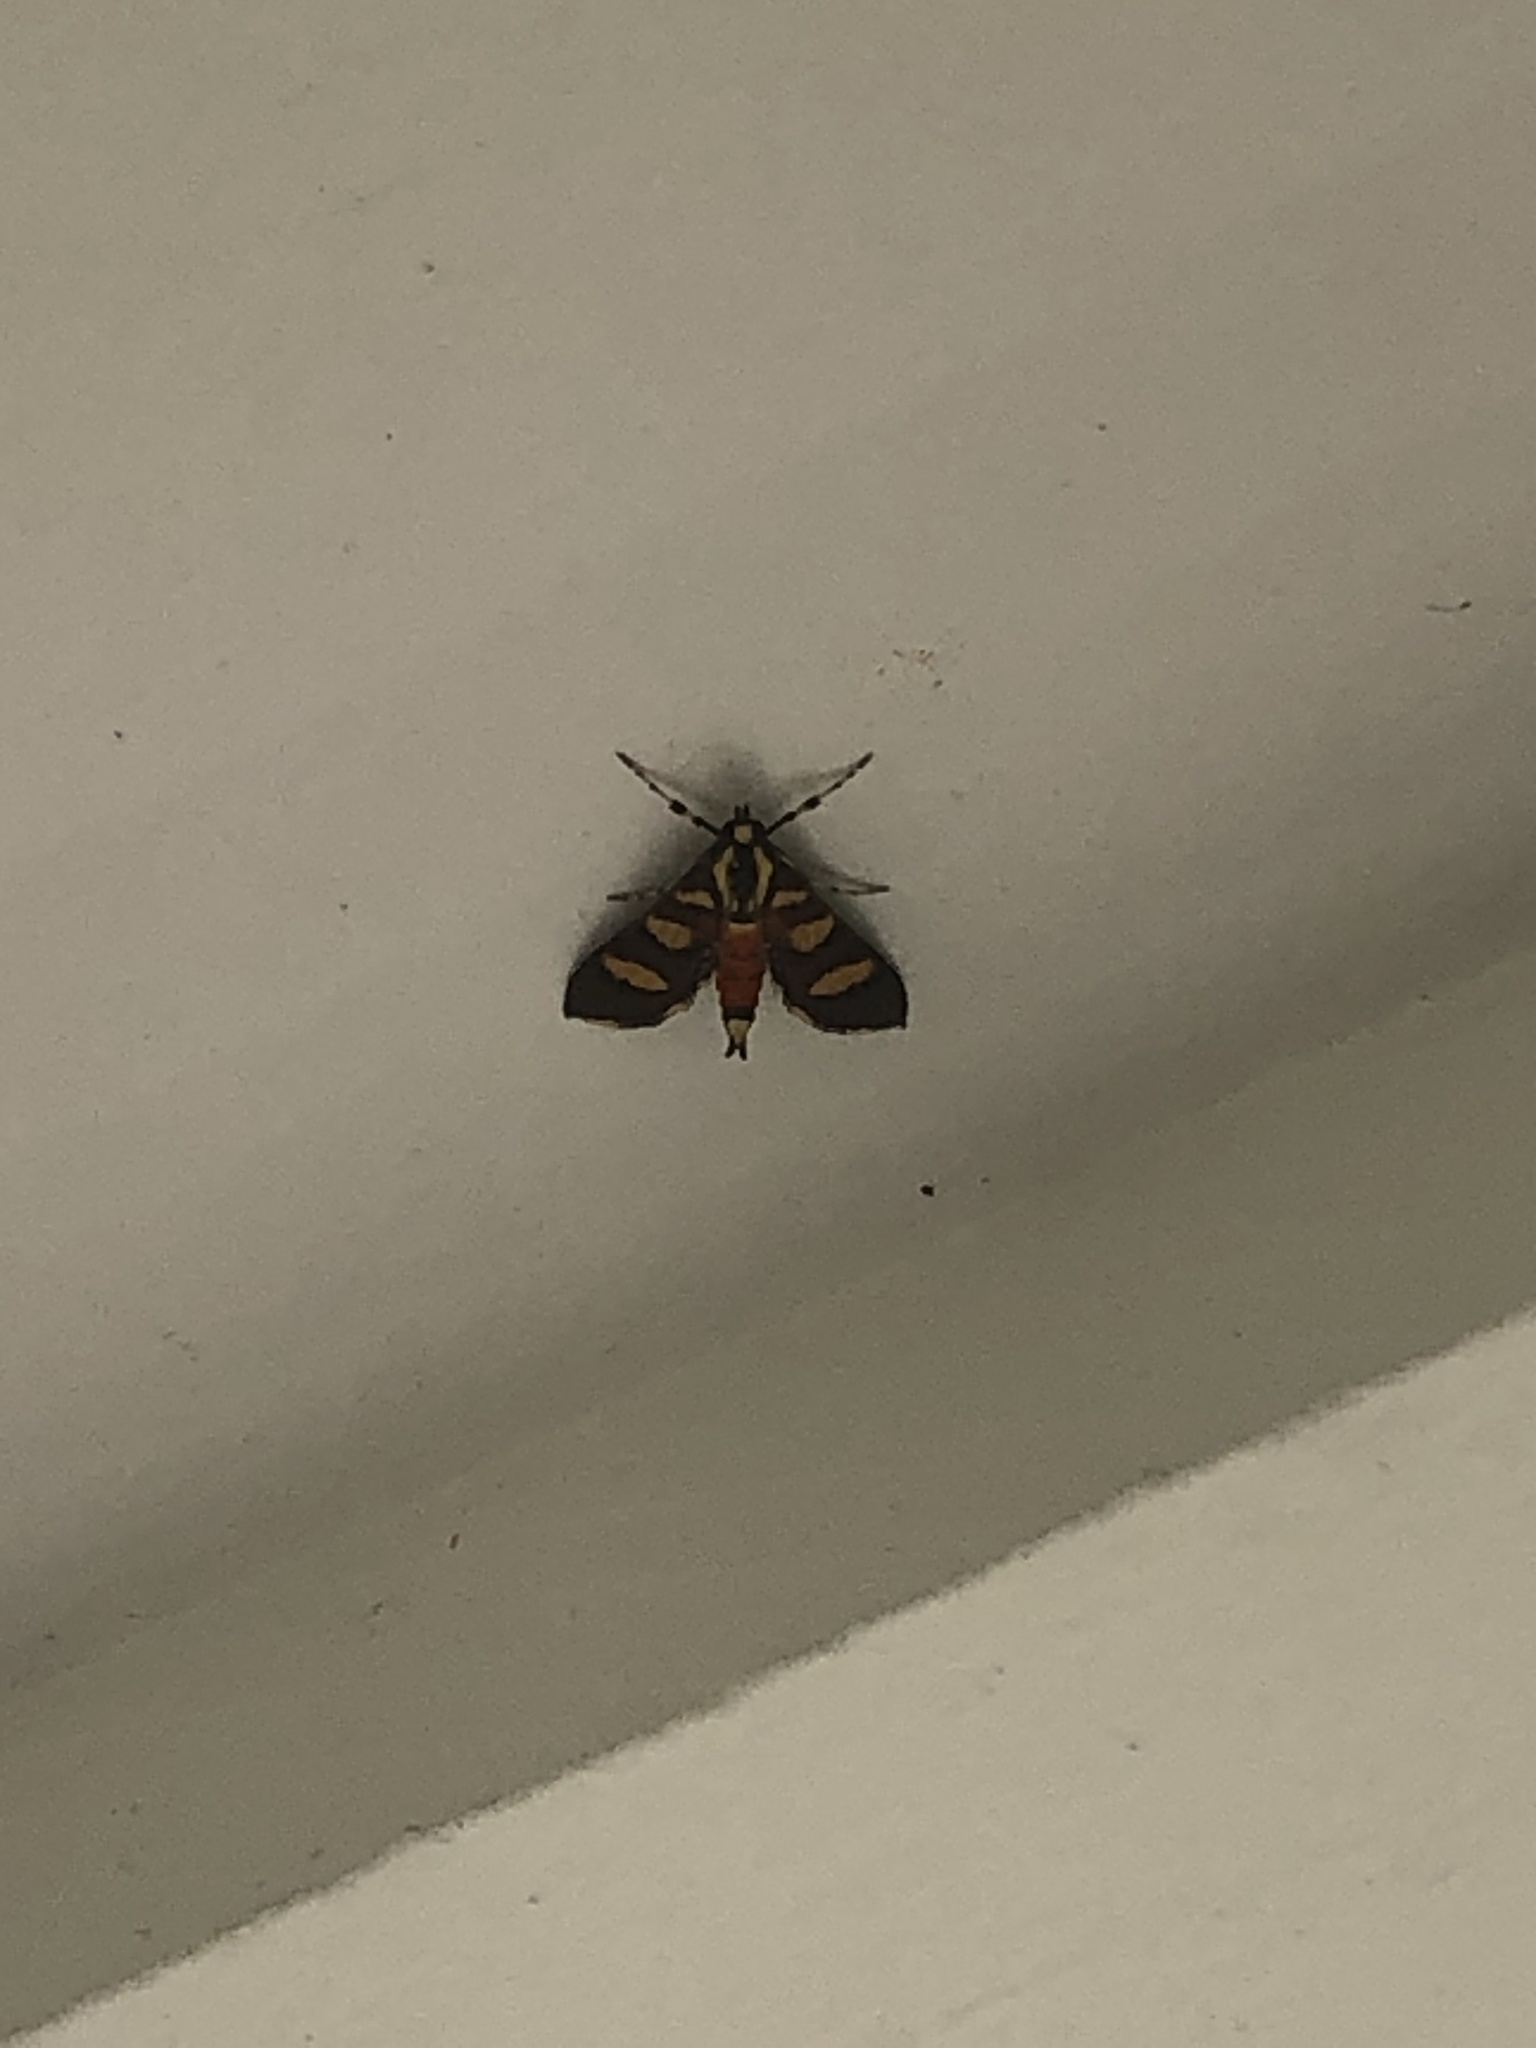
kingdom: Animalia
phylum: Arthropoda
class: Insecta
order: Lepidoptera
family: Crambidae
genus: Syngamia
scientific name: Syngamia florella
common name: Orange-spotted flower moth
